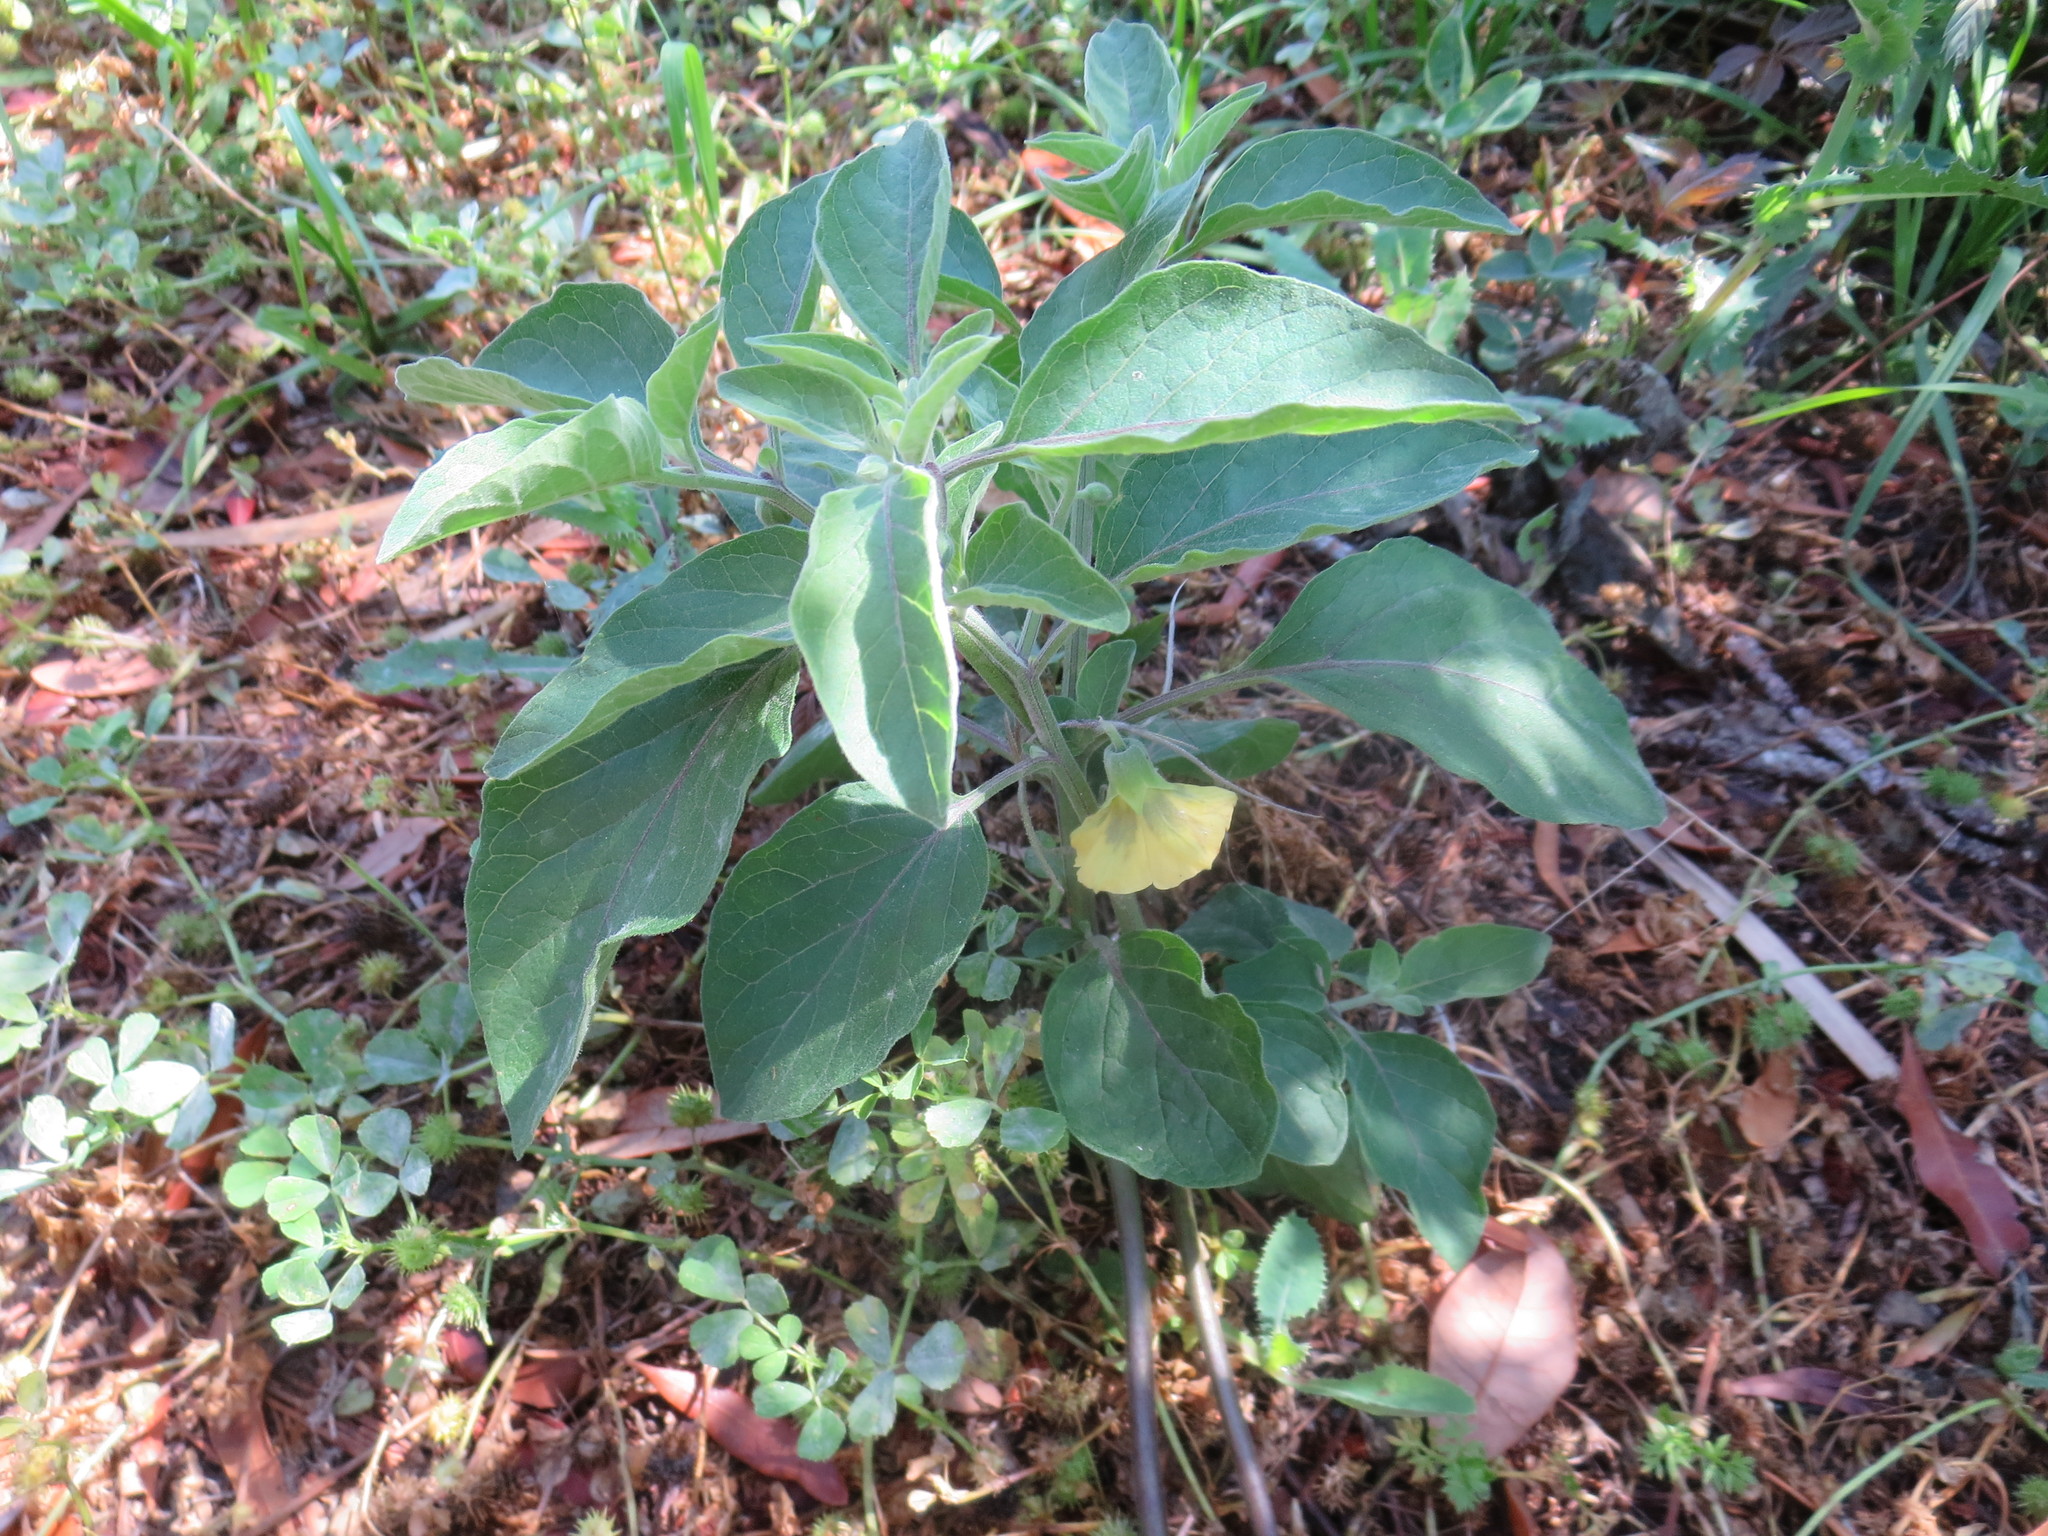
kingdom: Plantae
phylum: Tracheophyta
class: Magnoliopsida
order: Solanales
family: Solanaceae
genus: Physalis
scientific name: Physalis walteri
